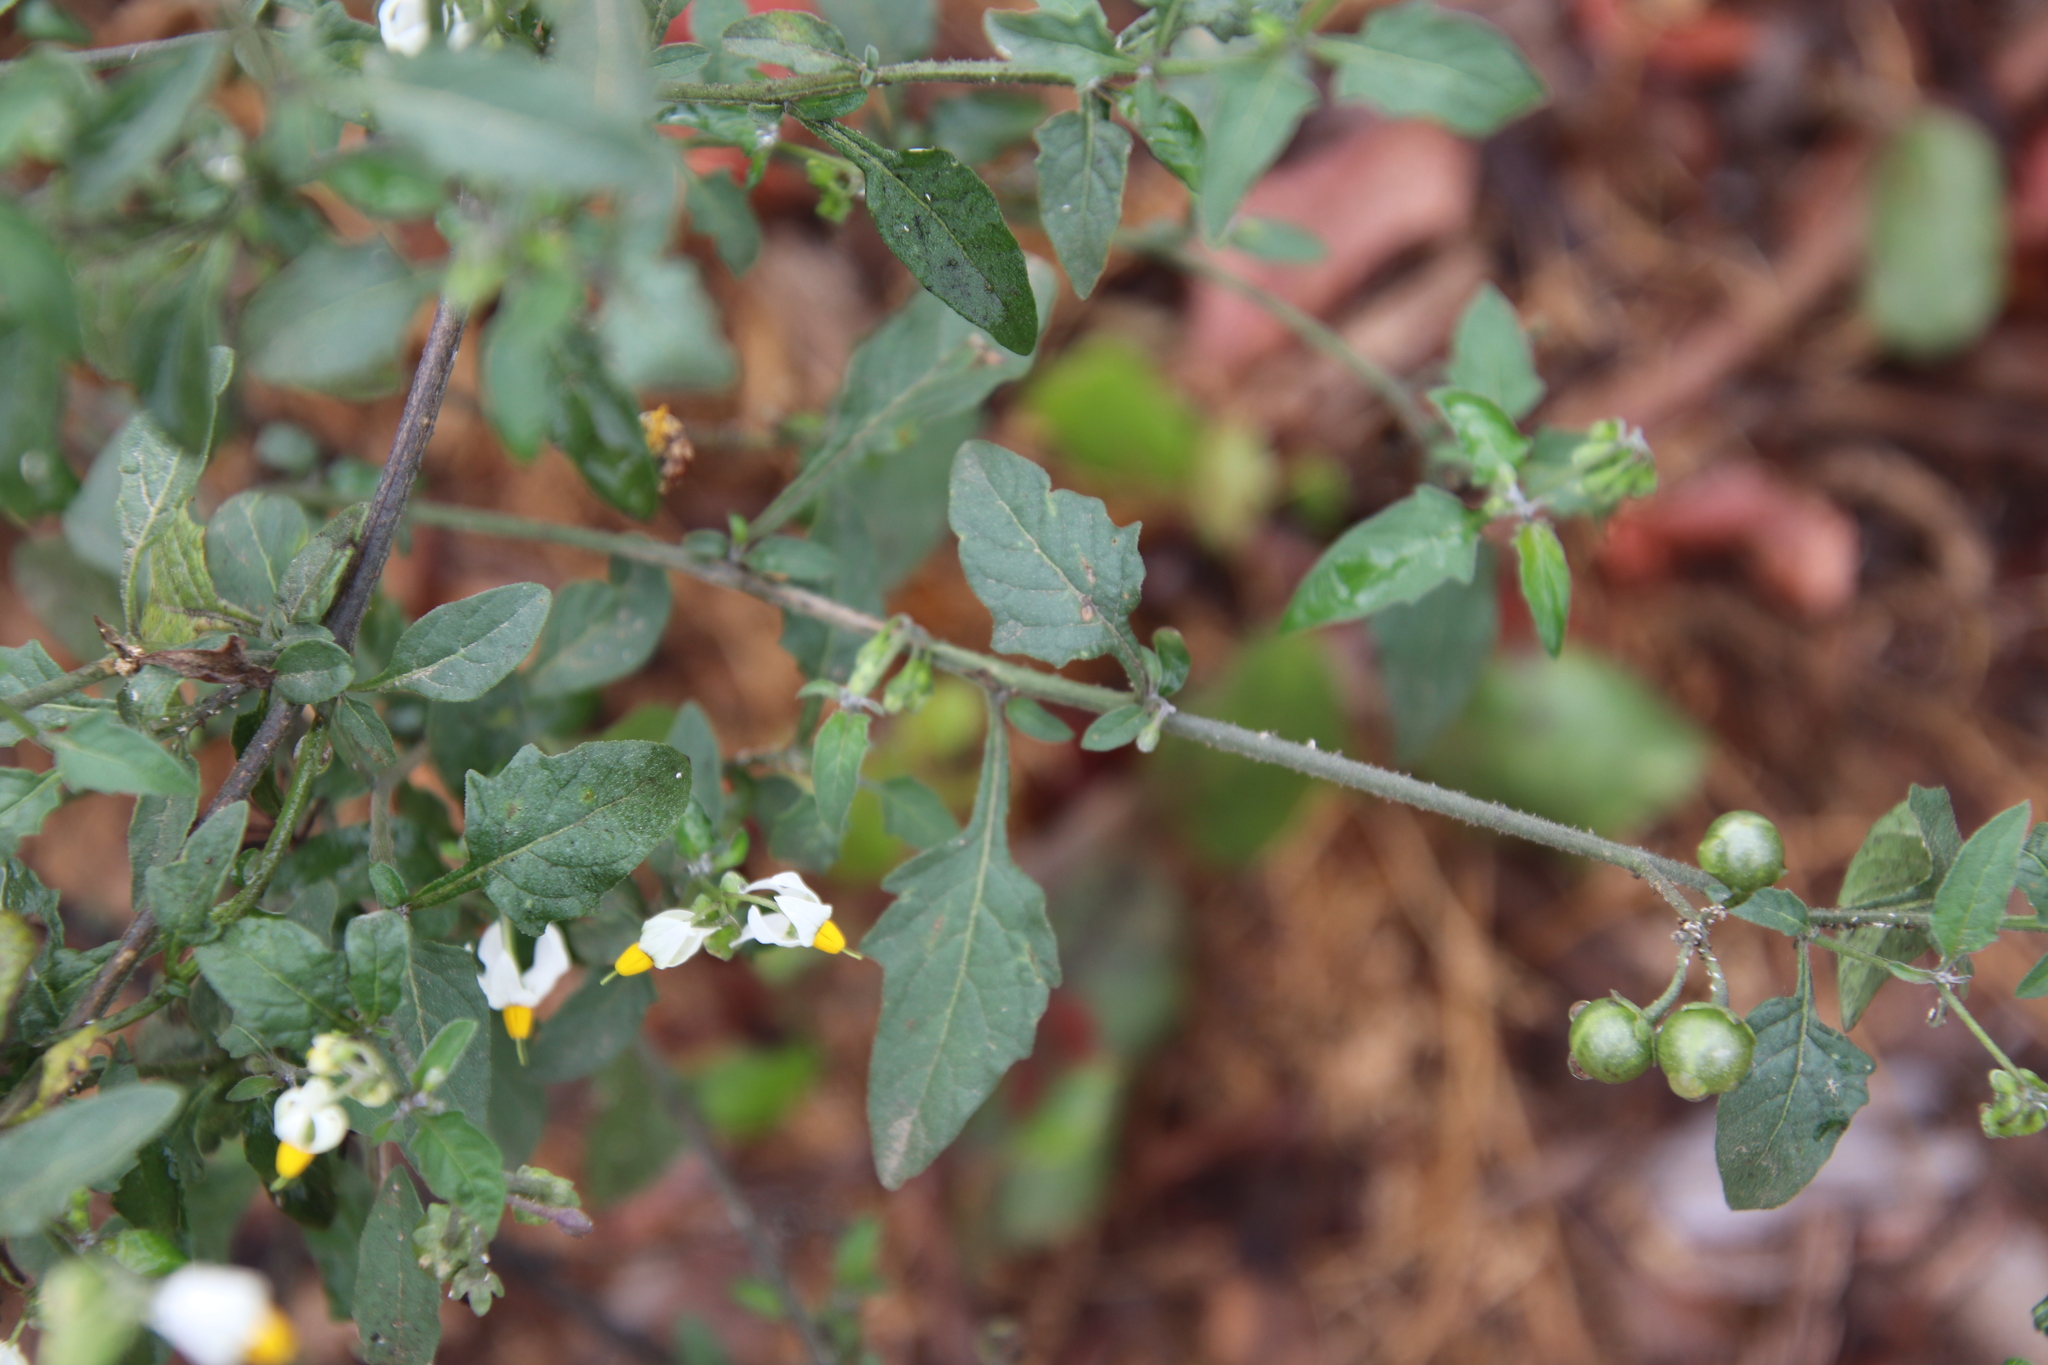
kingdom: Plantae
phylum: Tracheophyta
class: Magnoliopsida
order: Solanales
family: Solanaceae
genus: Solanum
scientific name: Solanum douglasii
